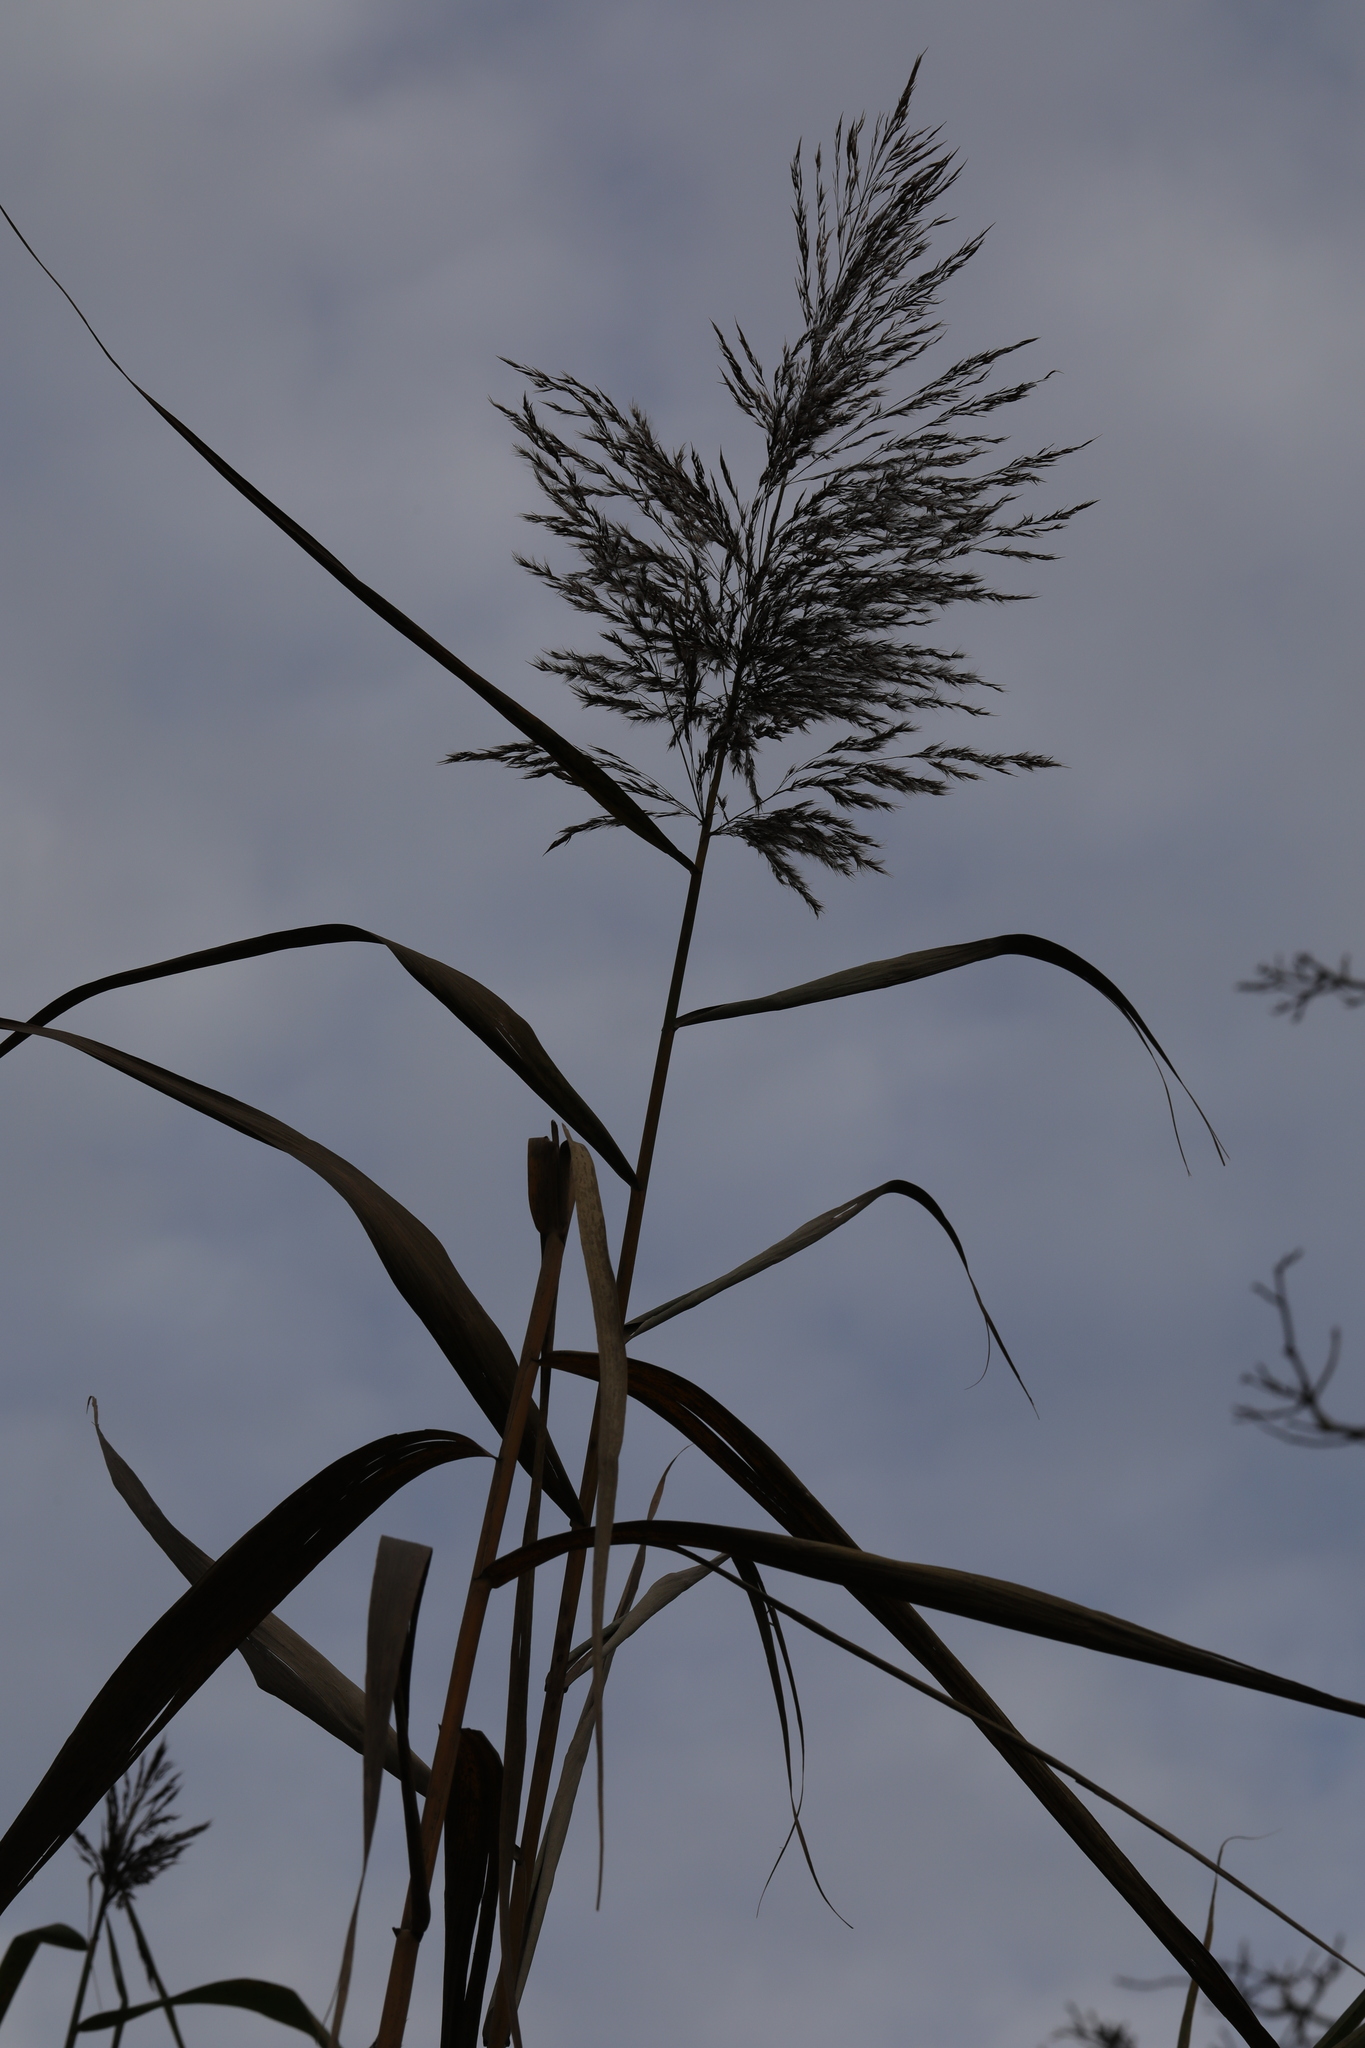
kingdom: Plantae
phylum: Tracheophyta
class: Liliopsida
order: Poales
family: Poaceae
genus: Phragmites
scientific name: Phragmites australis
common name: Common reed
